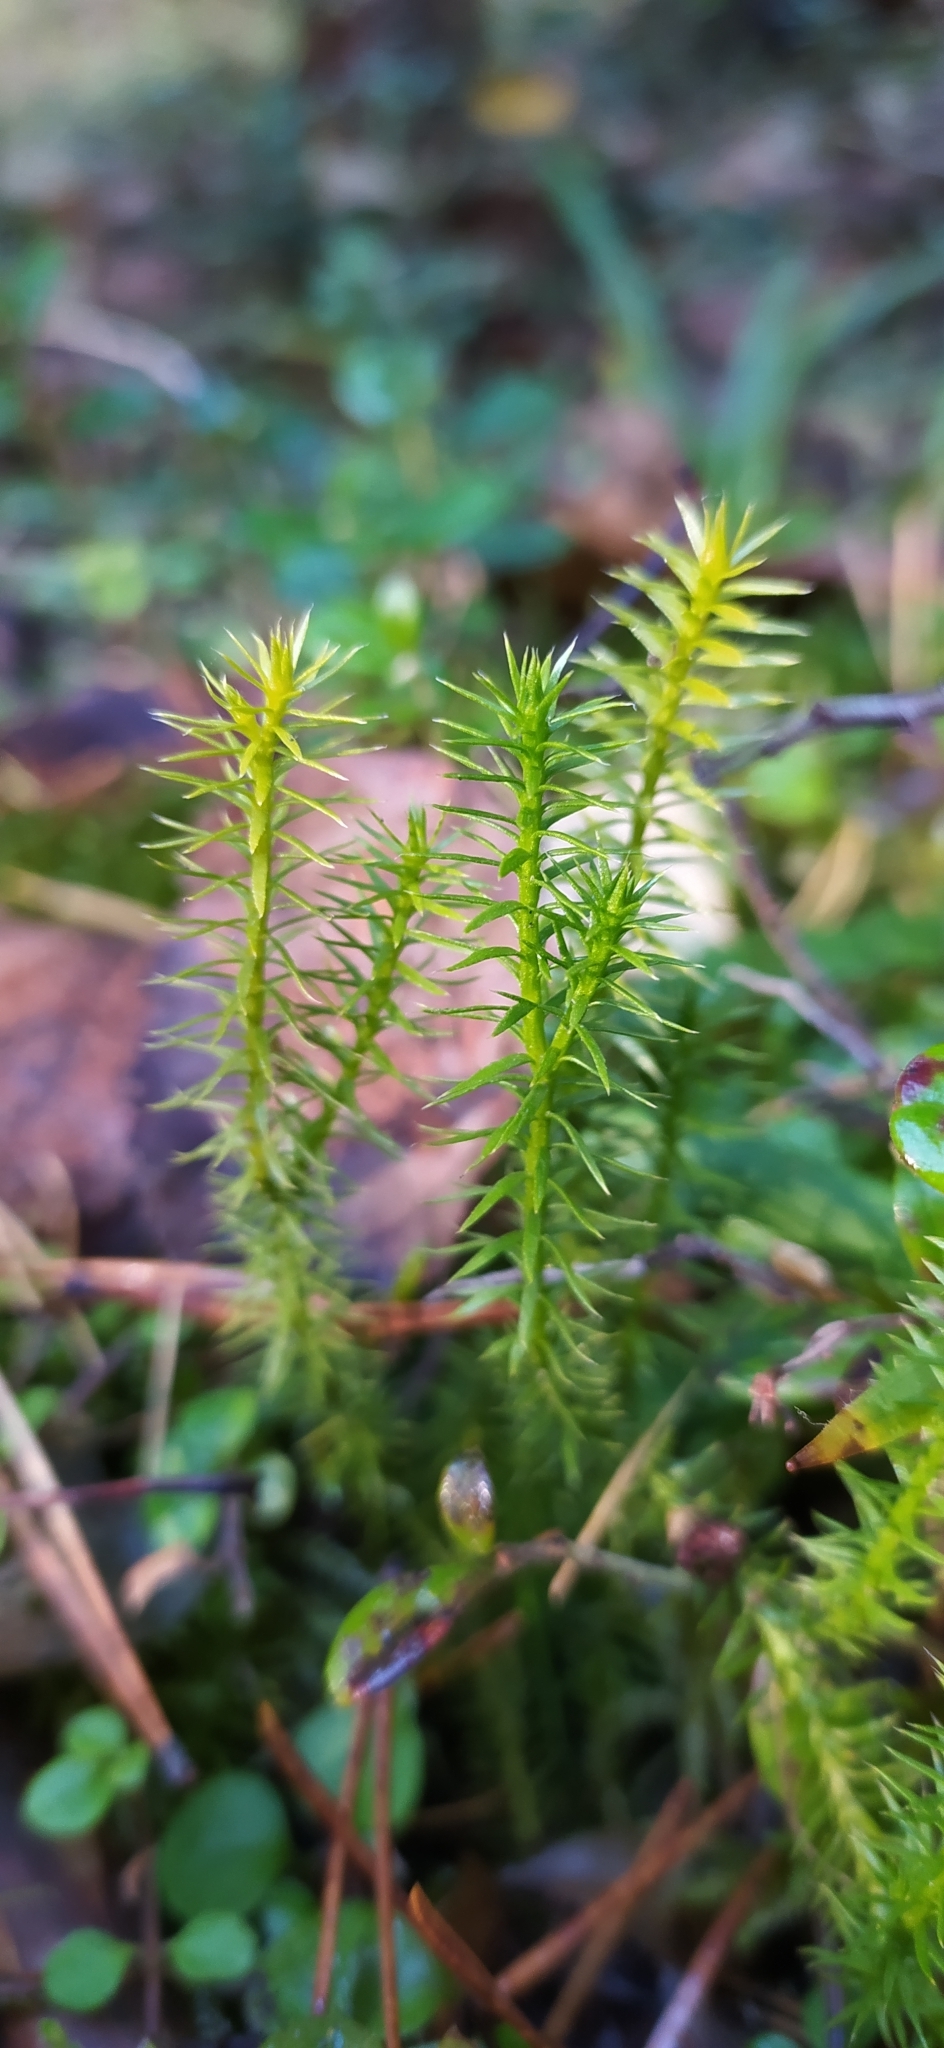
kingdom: Plantae
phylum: Tracheophyta
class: Lycopodiopsida
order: Lycopodiales
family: Lycopodiaceae
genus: Spinulum
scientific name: Spinulum annotinum
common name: Interrupted club-moss
